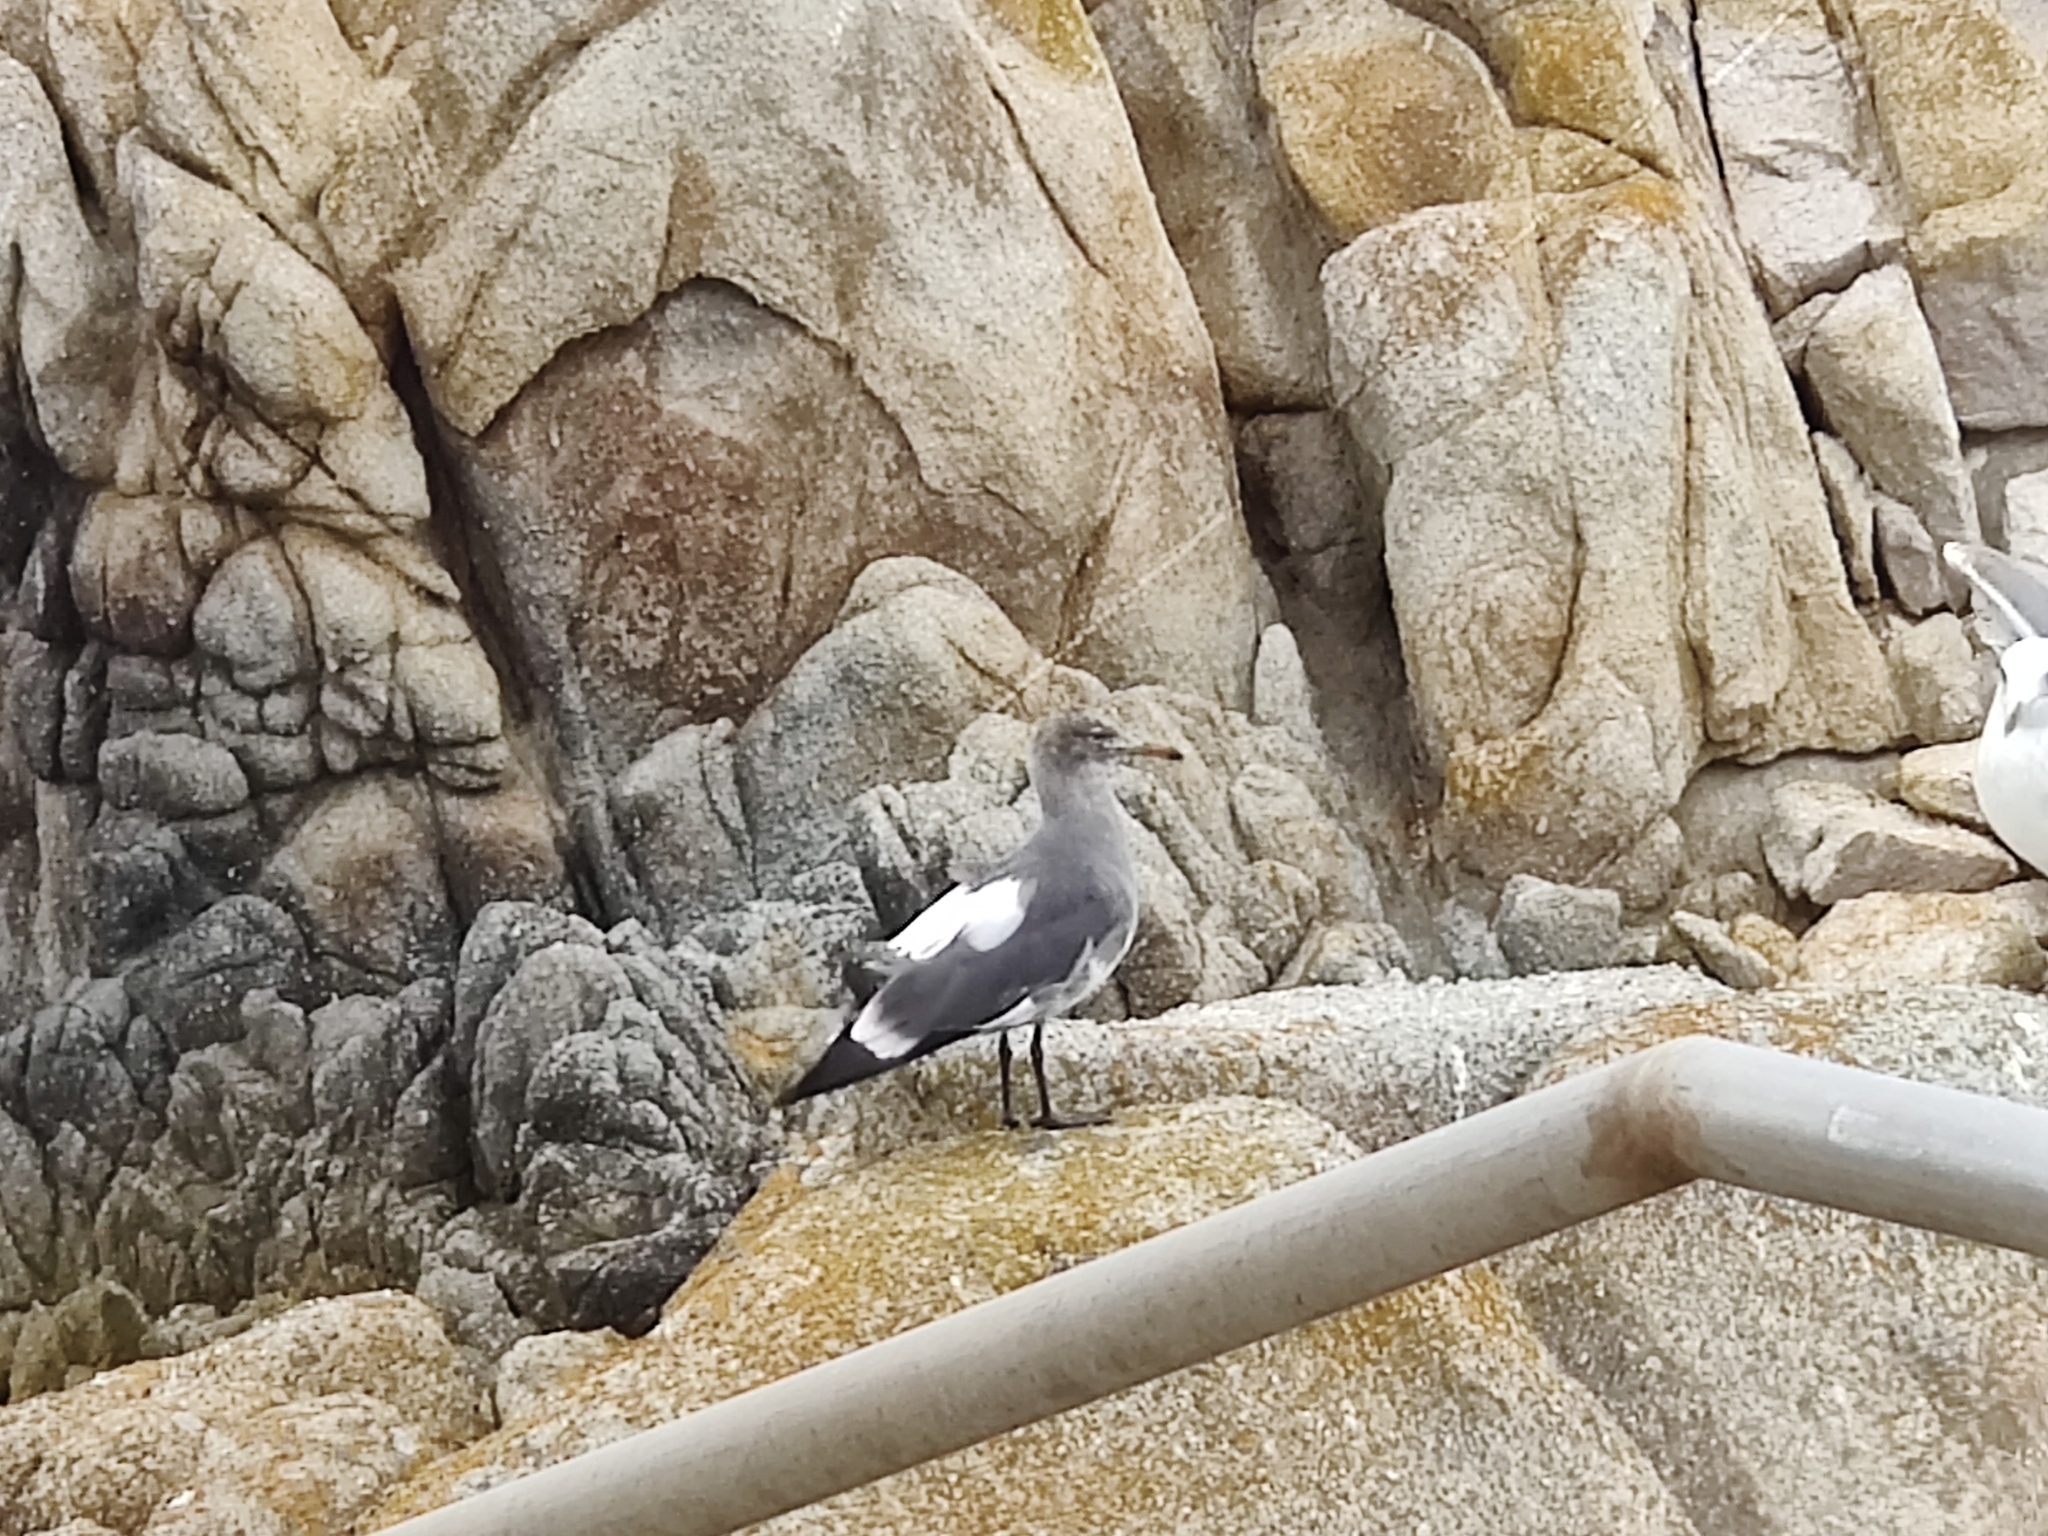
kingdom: Animalia
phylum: Chordata
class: Aves
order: Charadriiformes
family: Laridae
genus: Larus
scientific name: Larus heermanni
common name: Heermann's gull
